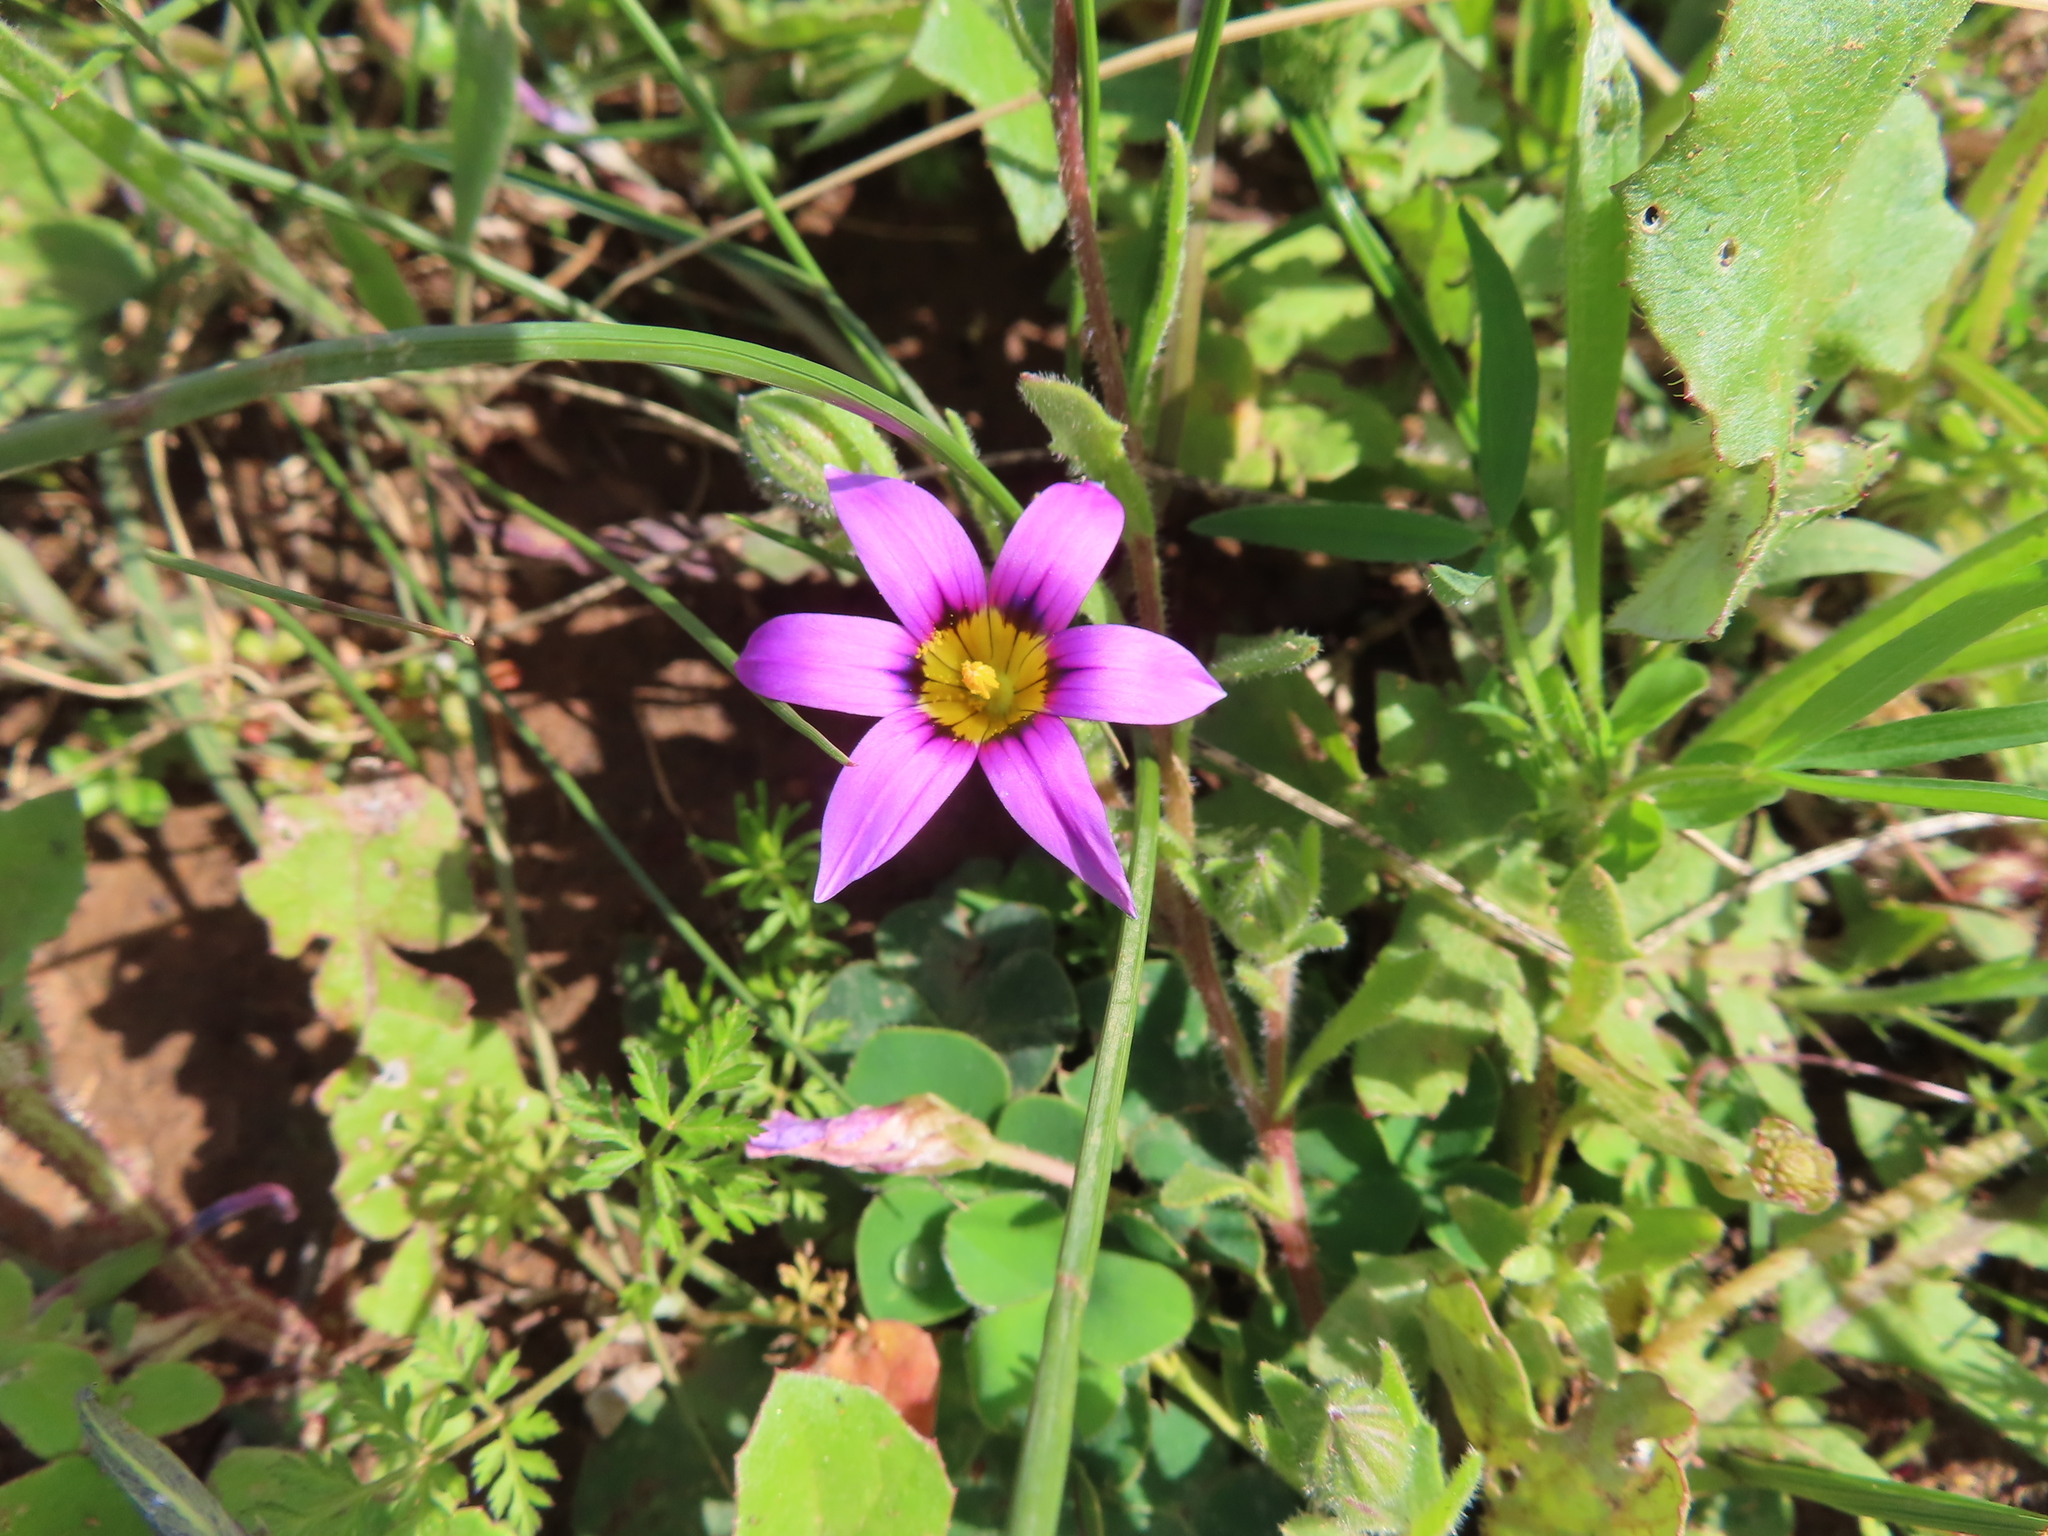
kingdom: Plantae
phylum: Tracheophyta
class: Liliopsida
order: Asparagales
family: Iridaceae
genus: Romulea
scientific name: Romulea rosea
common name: Oniongrass
